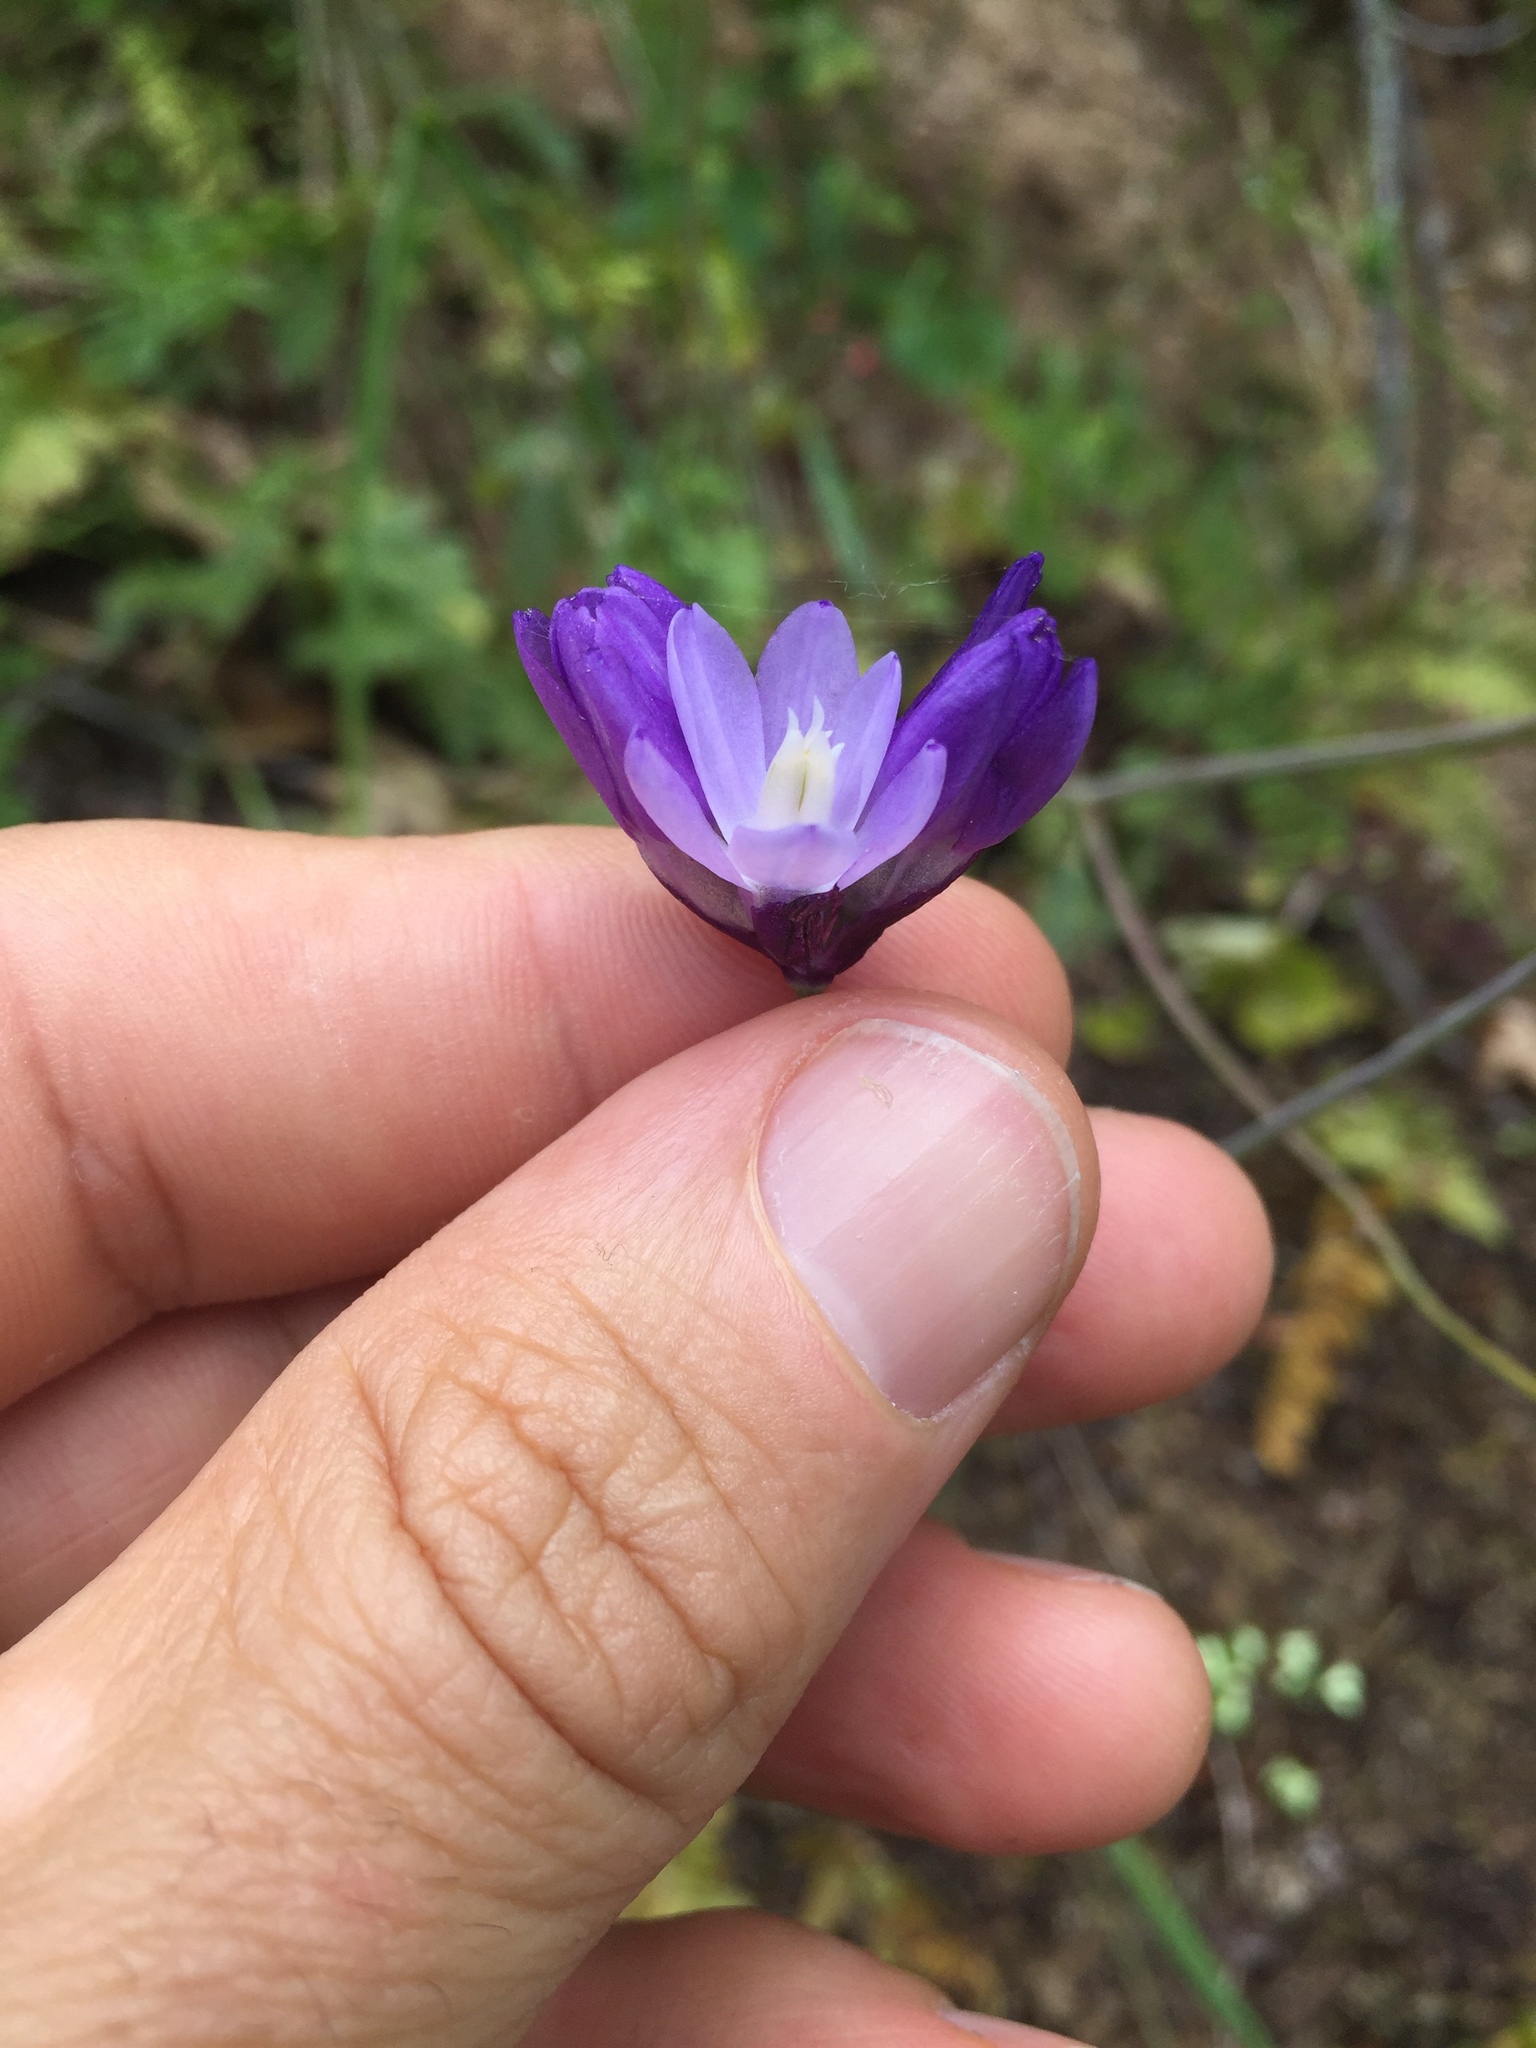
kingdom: Plantae
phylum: Tracheophyta
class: Liliopsida
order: Asparagales
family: Asparagaceae
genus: Dipterostemon
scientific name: Dipterostemon capitatus
